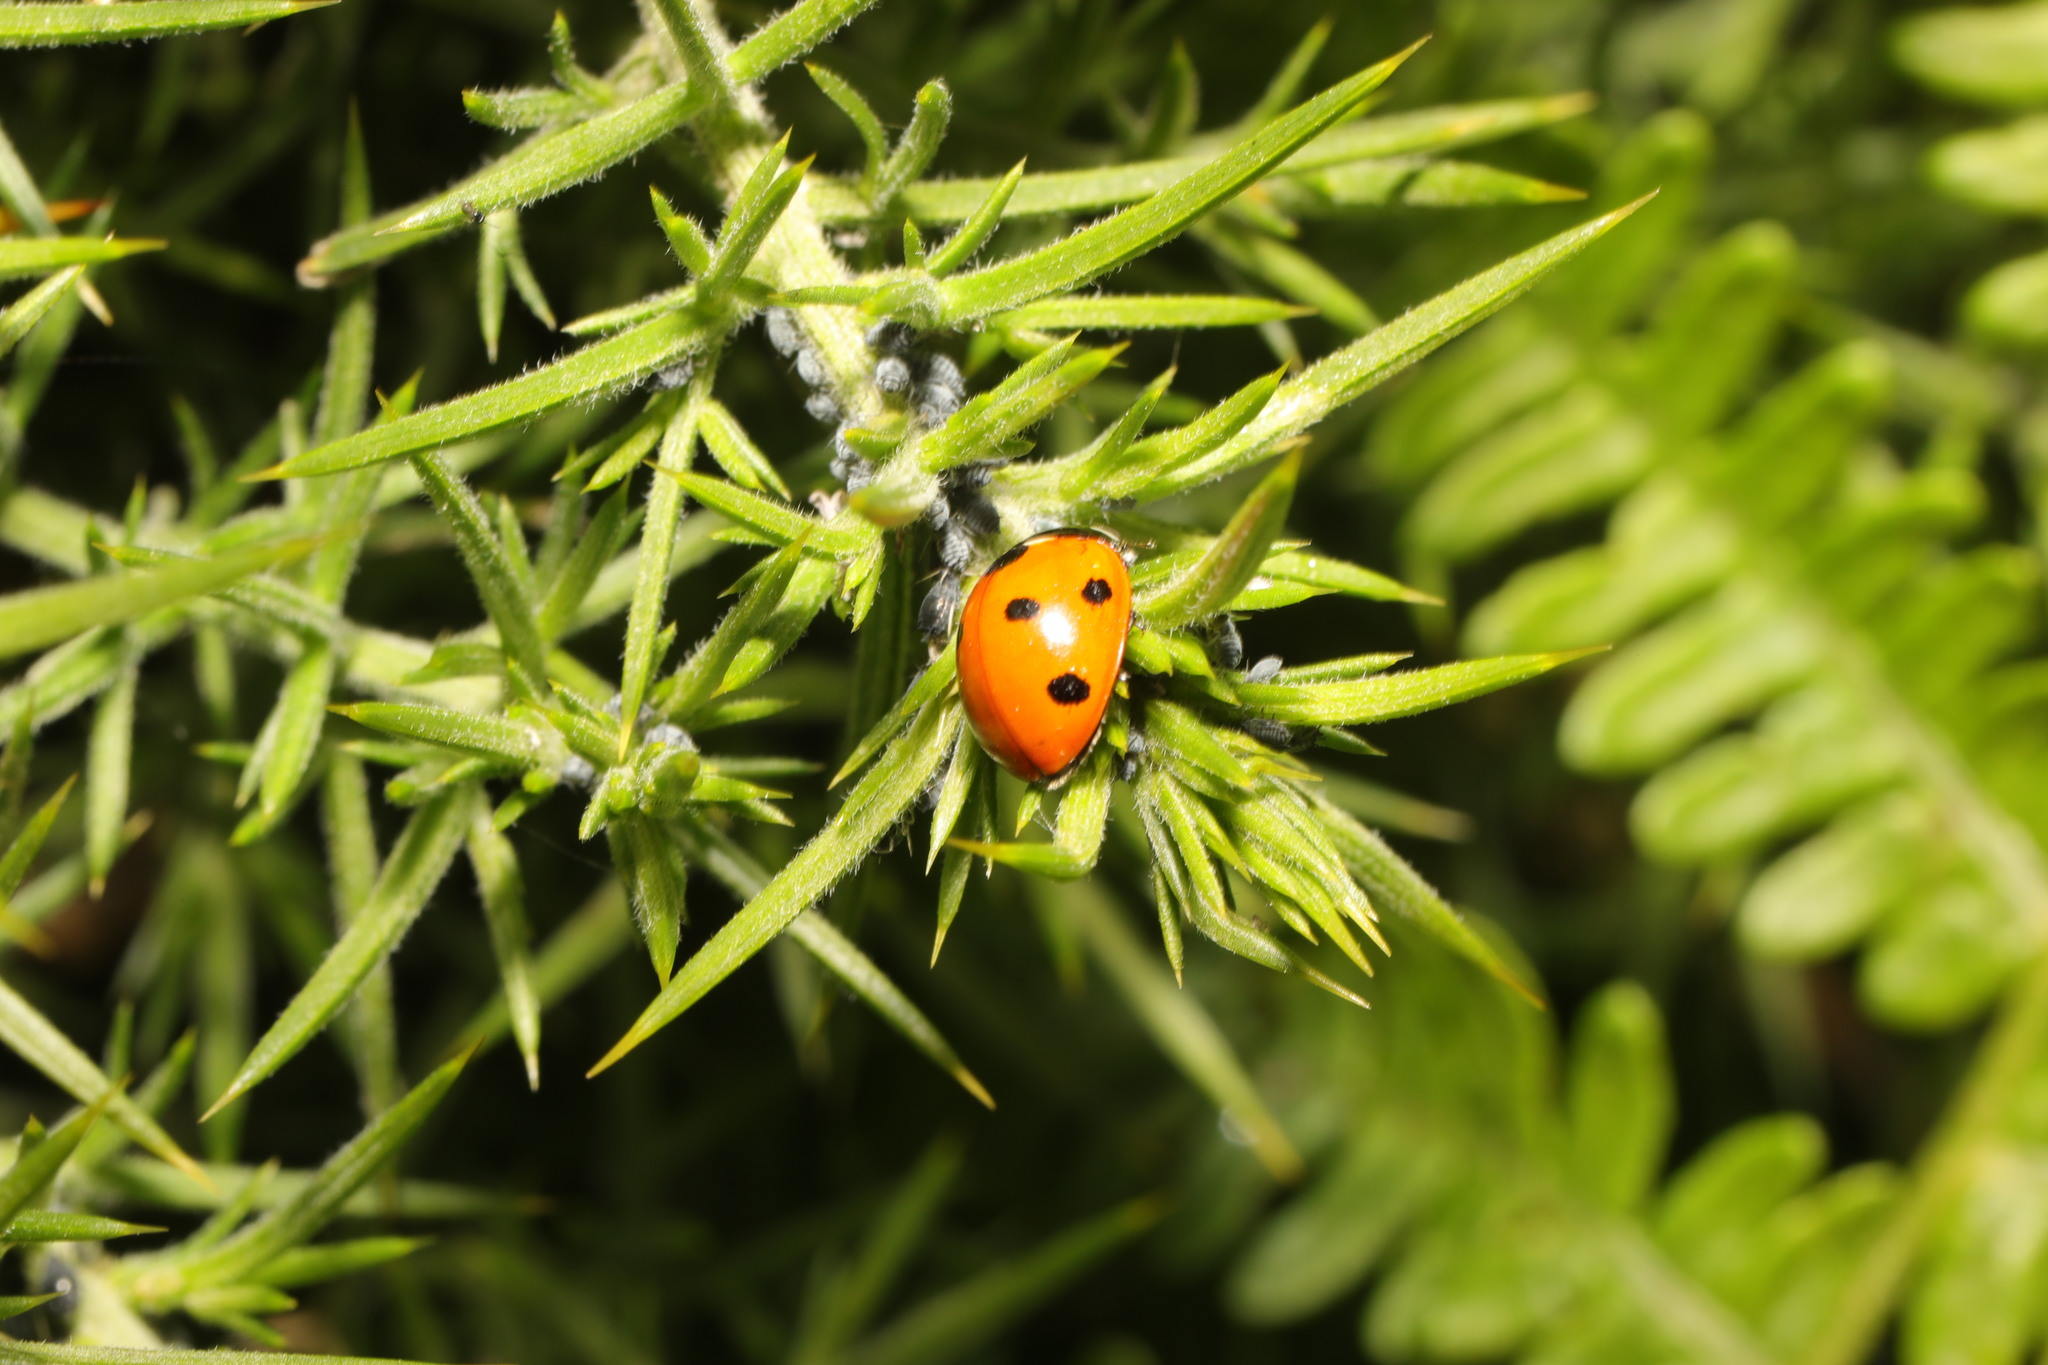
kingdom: Animalia
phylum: Arthropoda
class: Insecta
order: Coleoptera
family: Coccinellidae
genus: Coccinella
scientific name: Coccinella septempunctata
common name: Sevenspotted lady beetle
